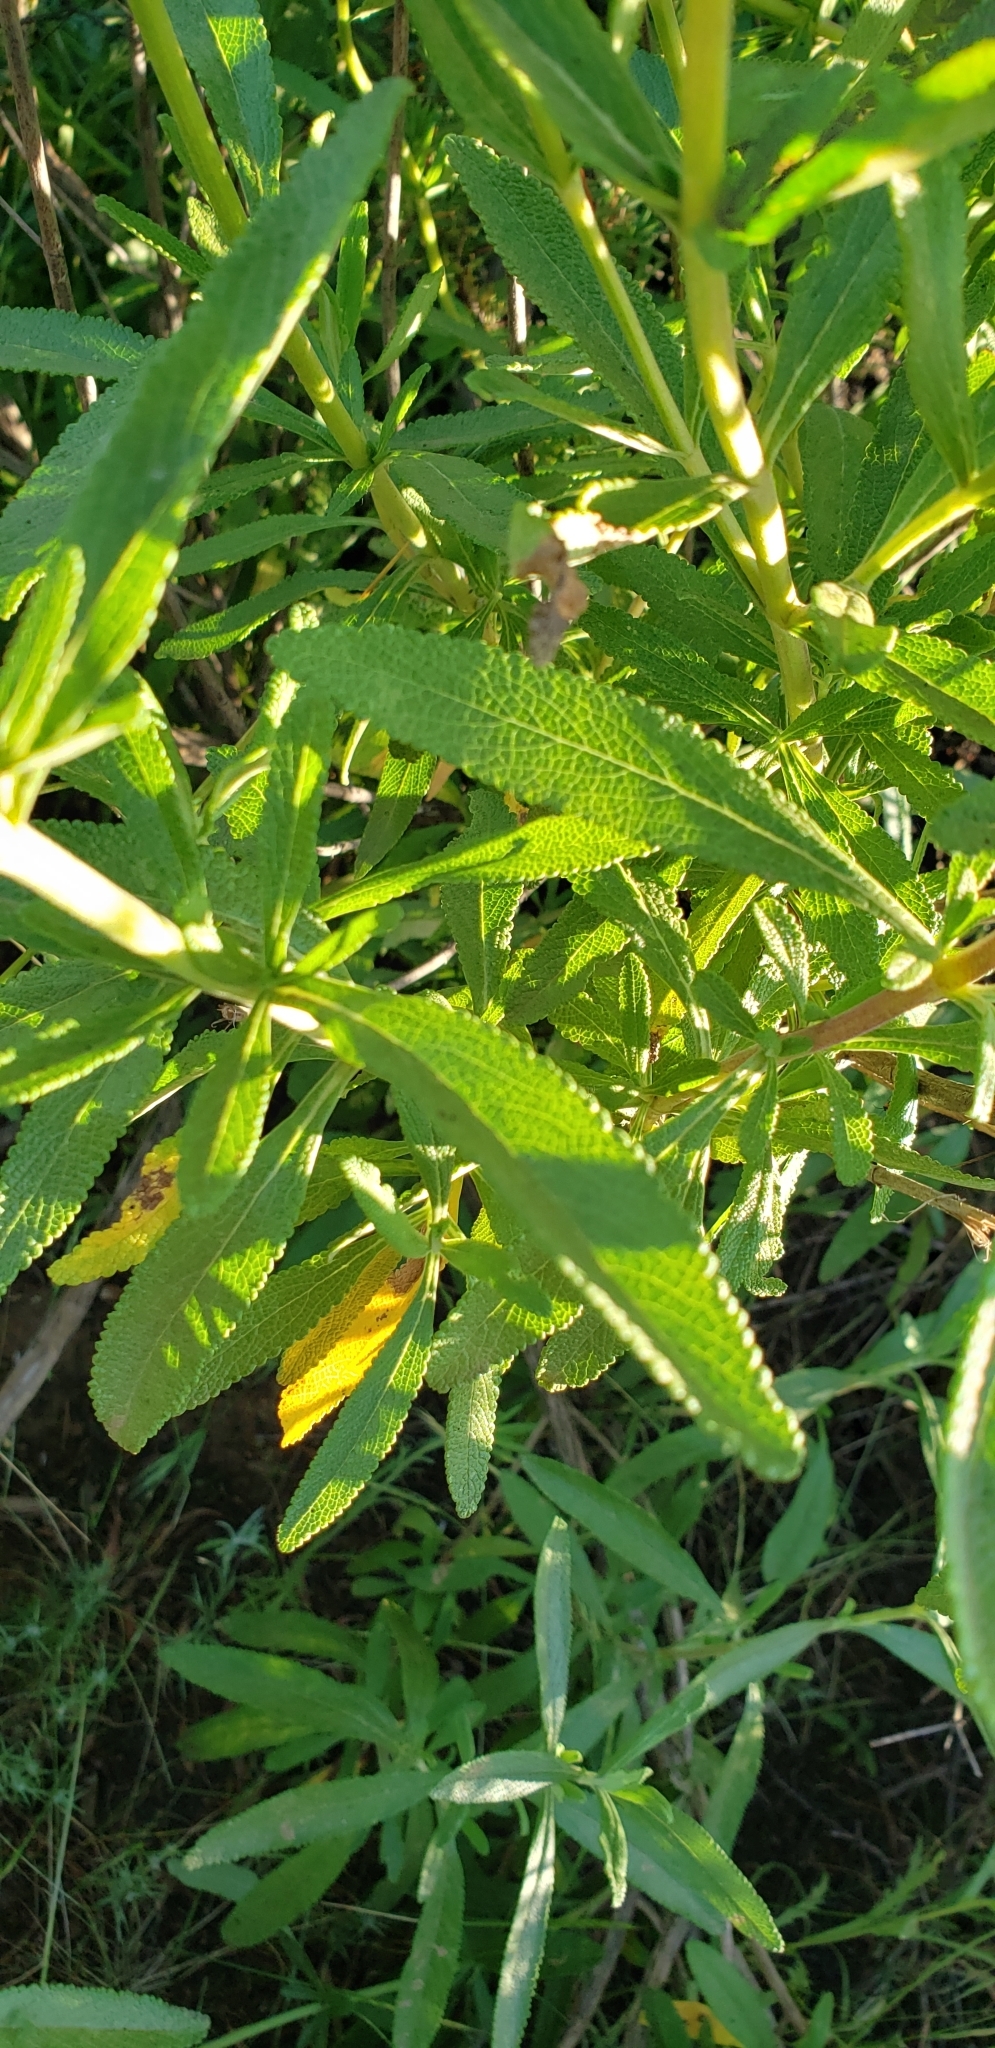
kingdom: Plantae
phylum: Tracheophyta
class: Magnoliopsida
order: Lamiales
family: Lamiaceae
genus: Salvia
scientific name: Salvia mellifera
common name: Black sage
